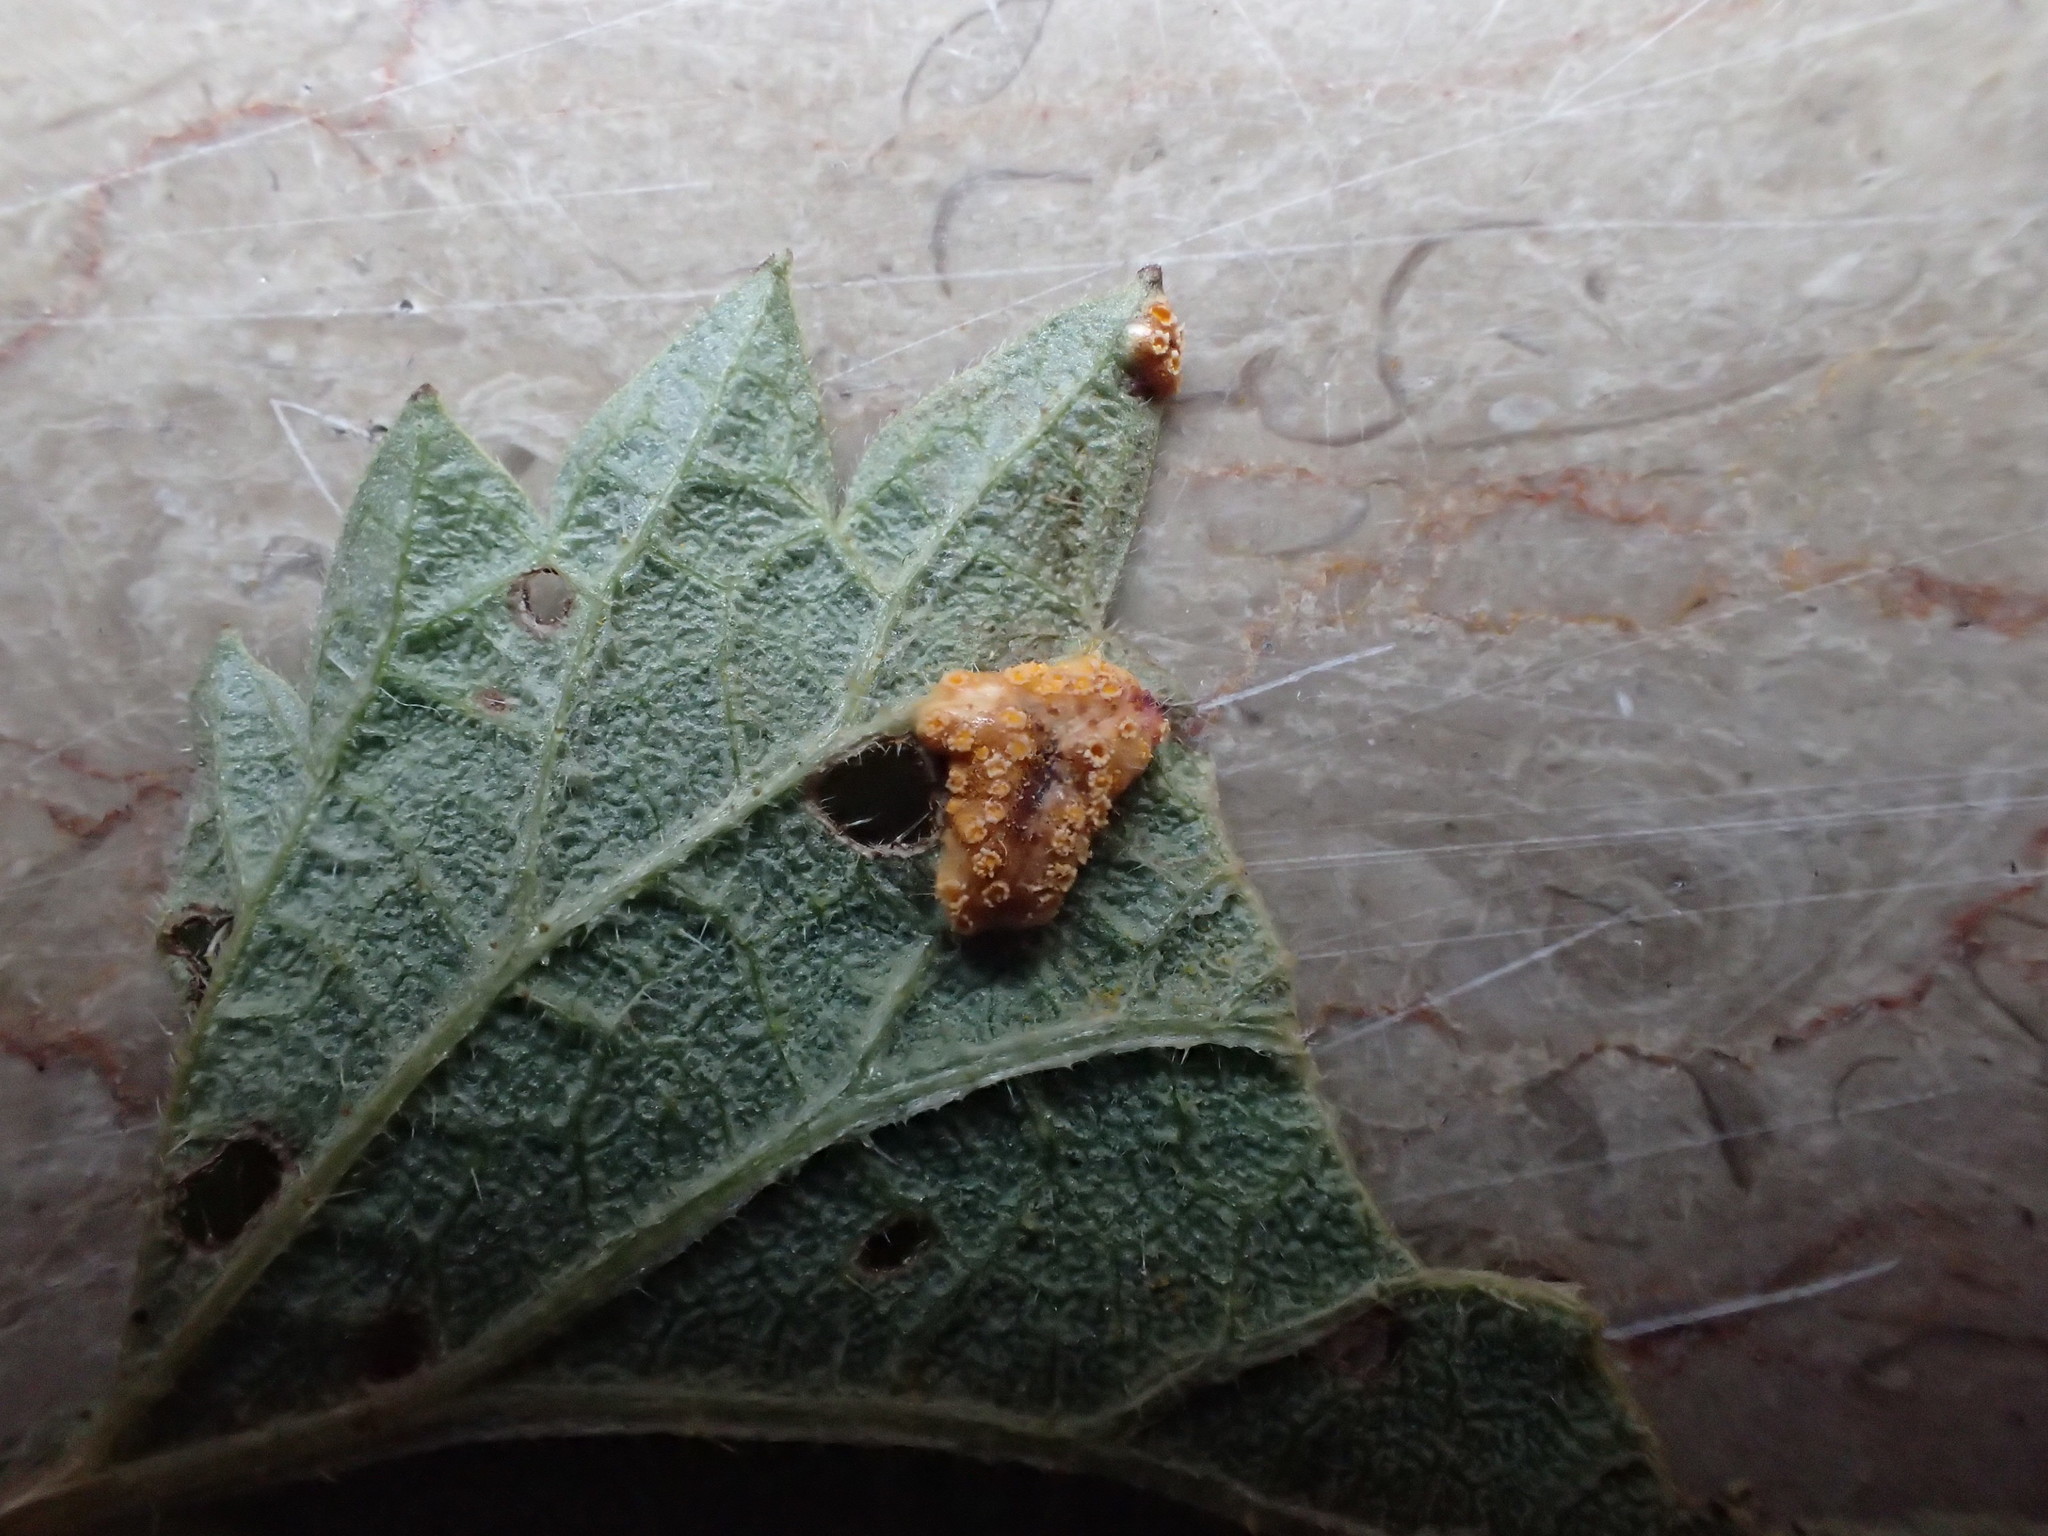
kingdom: Fungi
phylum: Basidiomycota
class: Pucciniomycetes
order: Pucciniales
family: Pucciniaceae
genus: Puccinia
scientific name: Puccinia urticata
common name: Nettle clustercup rust fungus
